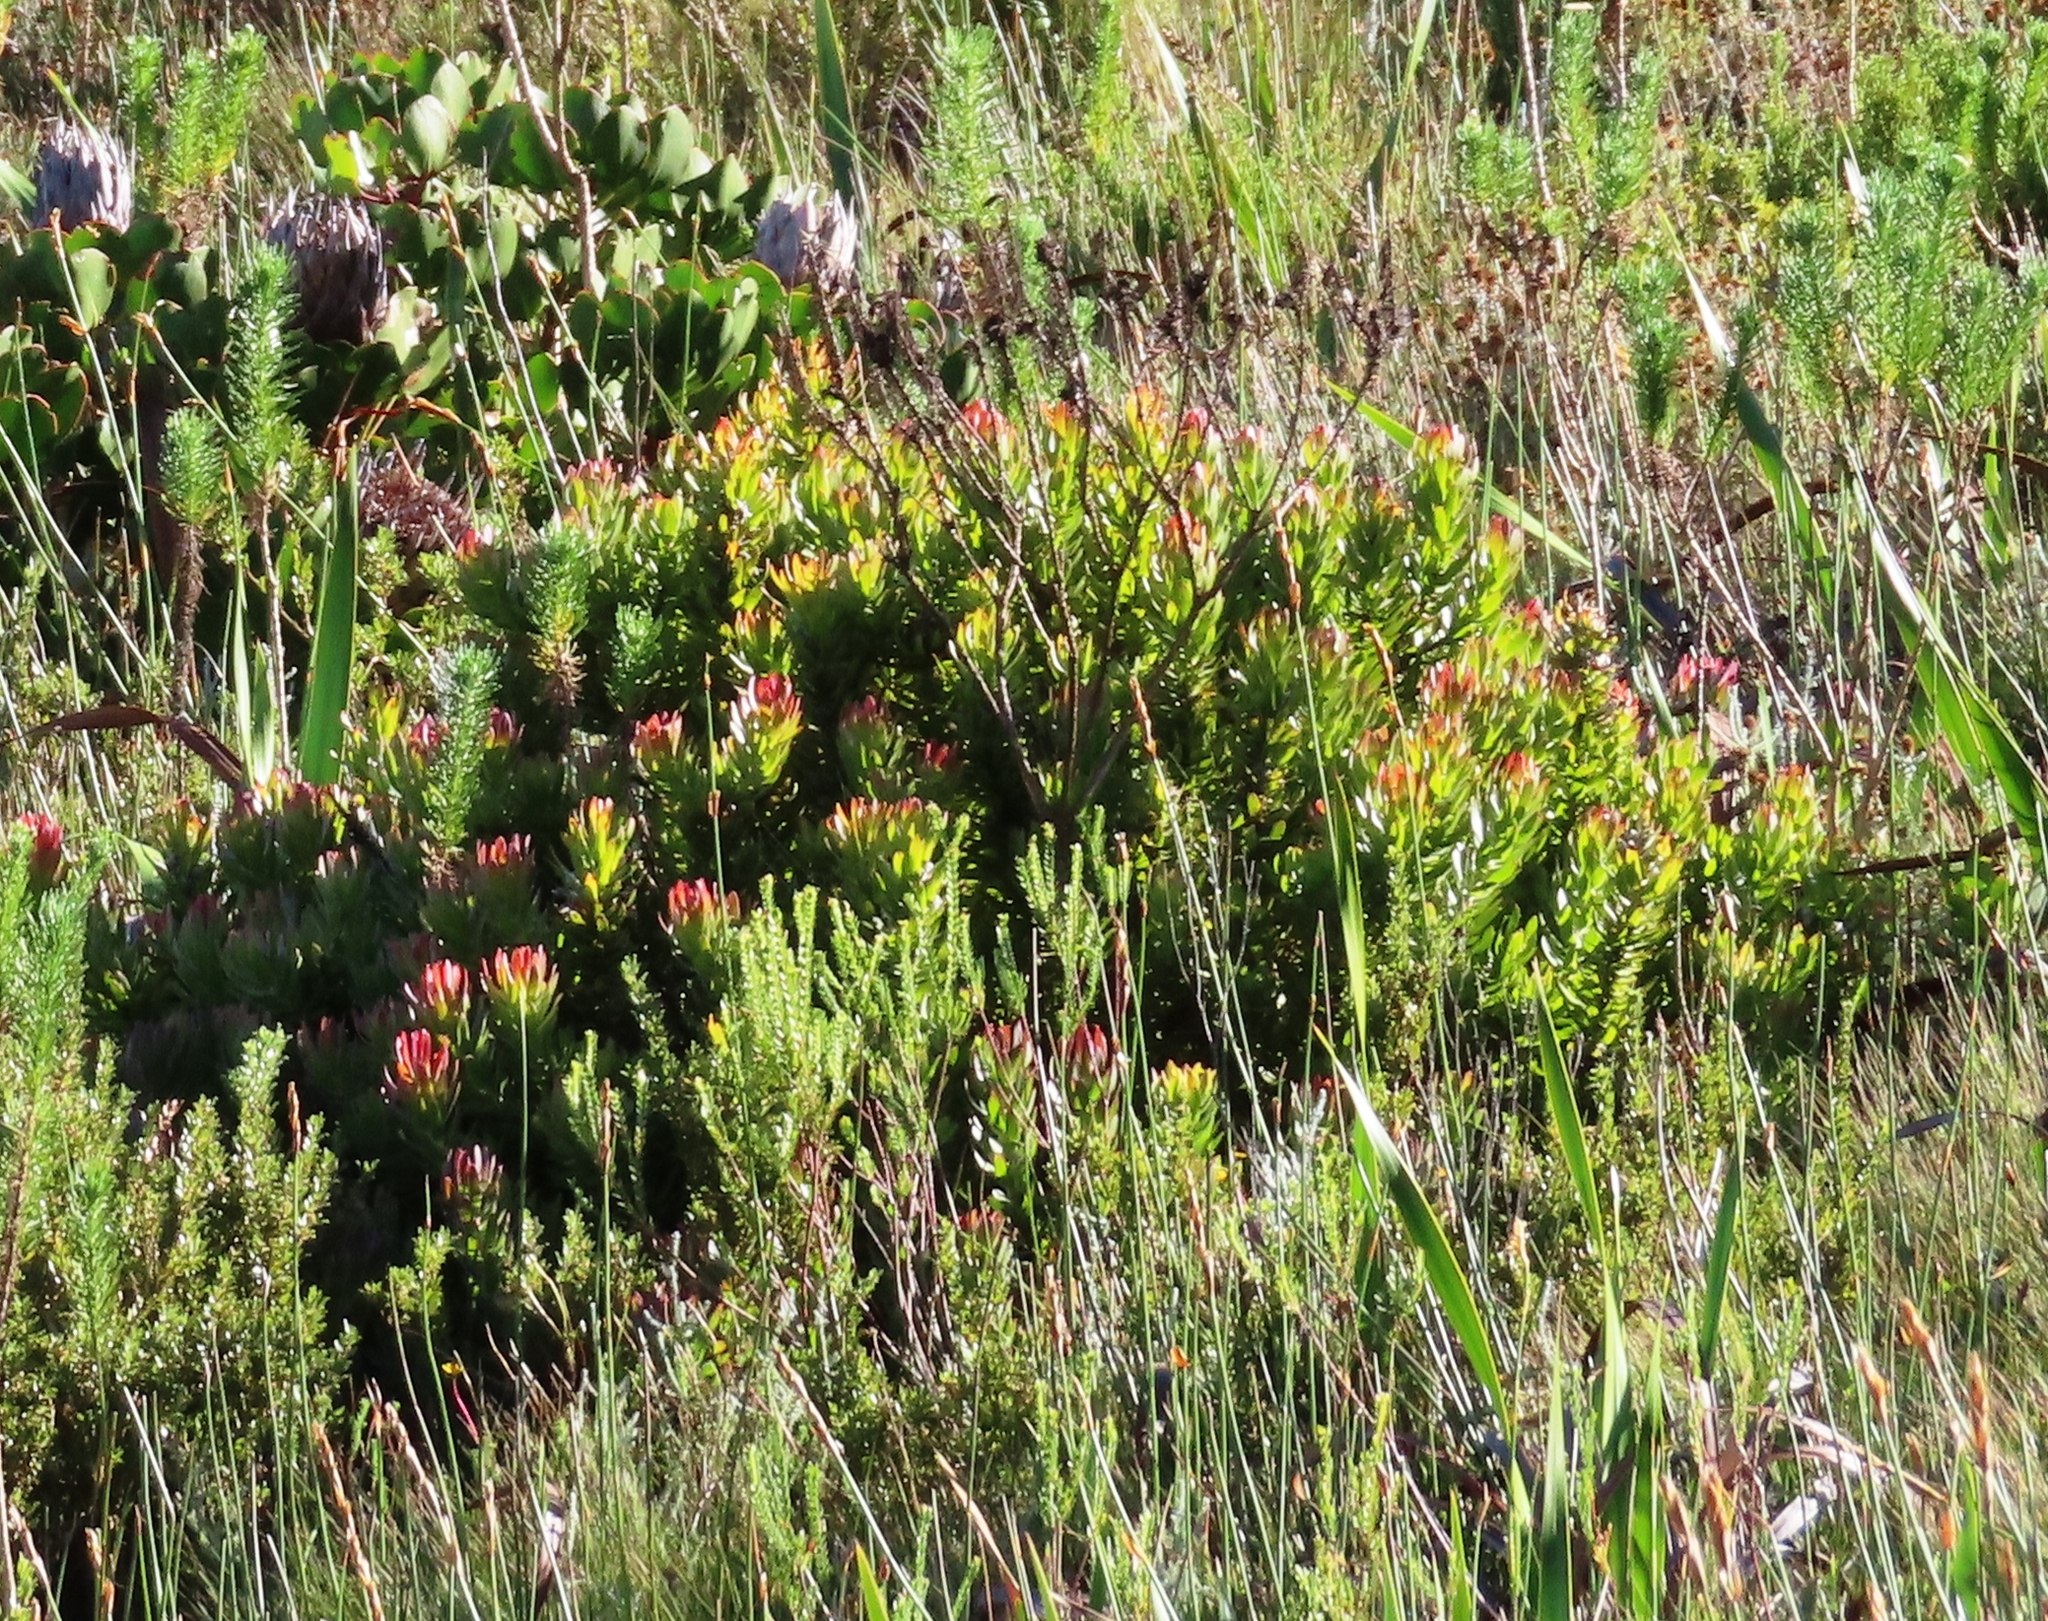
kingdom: Plantae
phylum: Tracheophyta
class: Magnoliopsida
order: Proteales
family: Proteaceae
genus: Mimetes
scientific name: Mimetes cucullatus
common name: Common pagoda
